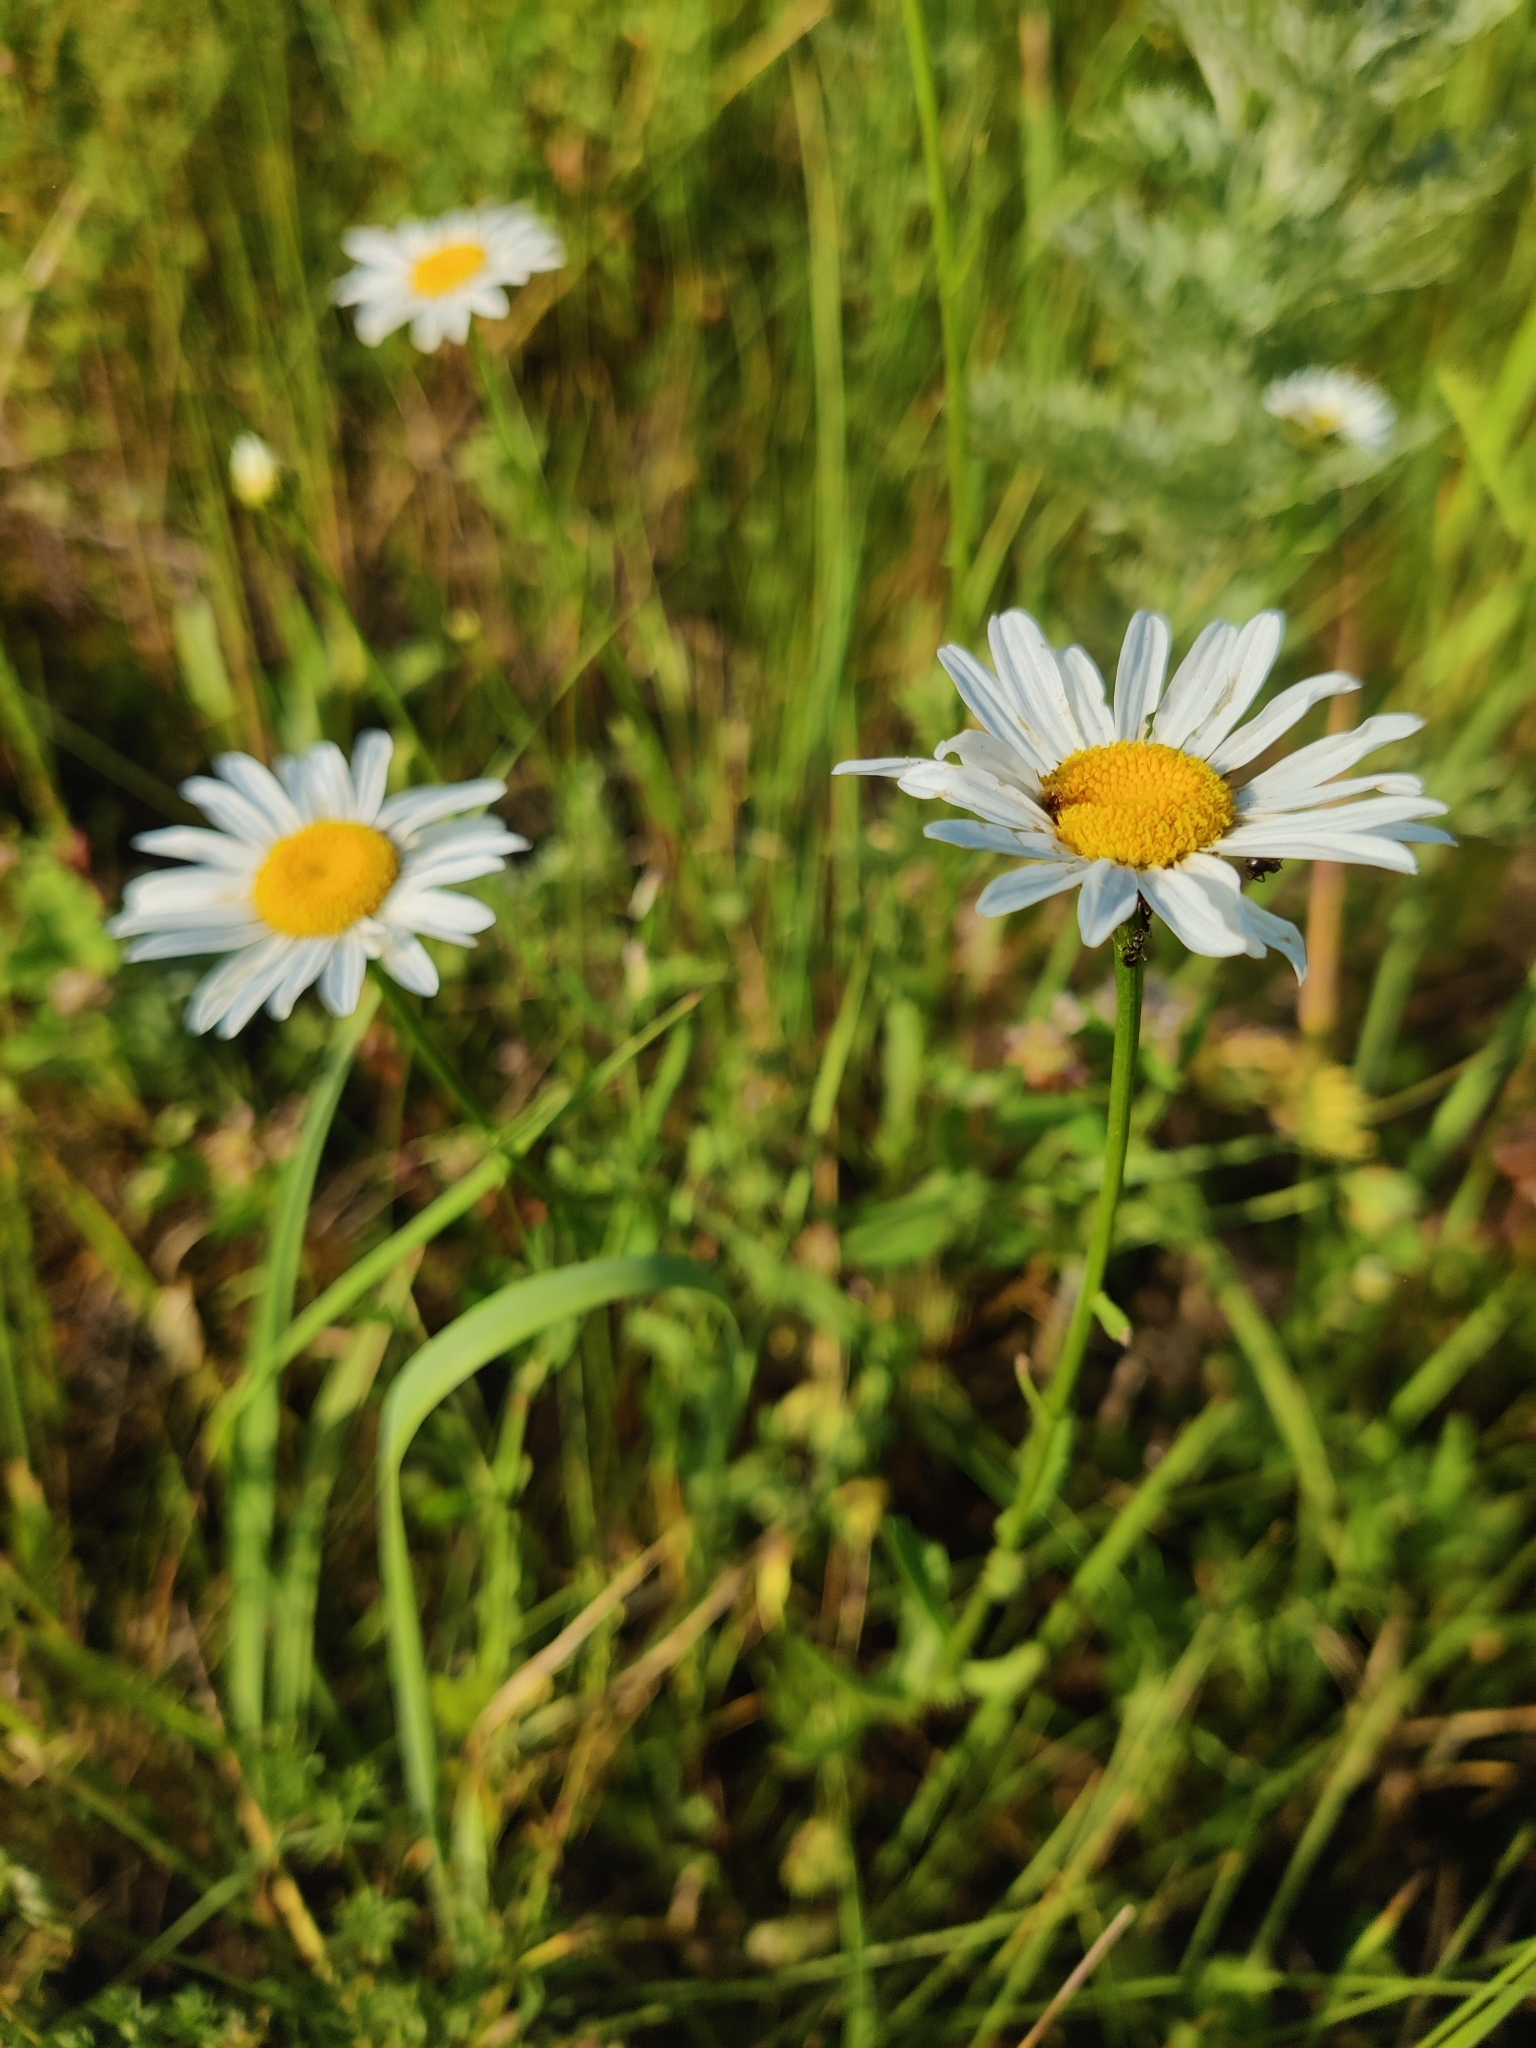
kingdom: Plantae
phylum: Tracheophyta
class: Magnoliopsida
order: Asterales
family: Asteraceae
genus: Leucanthemum
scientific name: Leucanthemum vulgare
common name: Oxeye daisy
